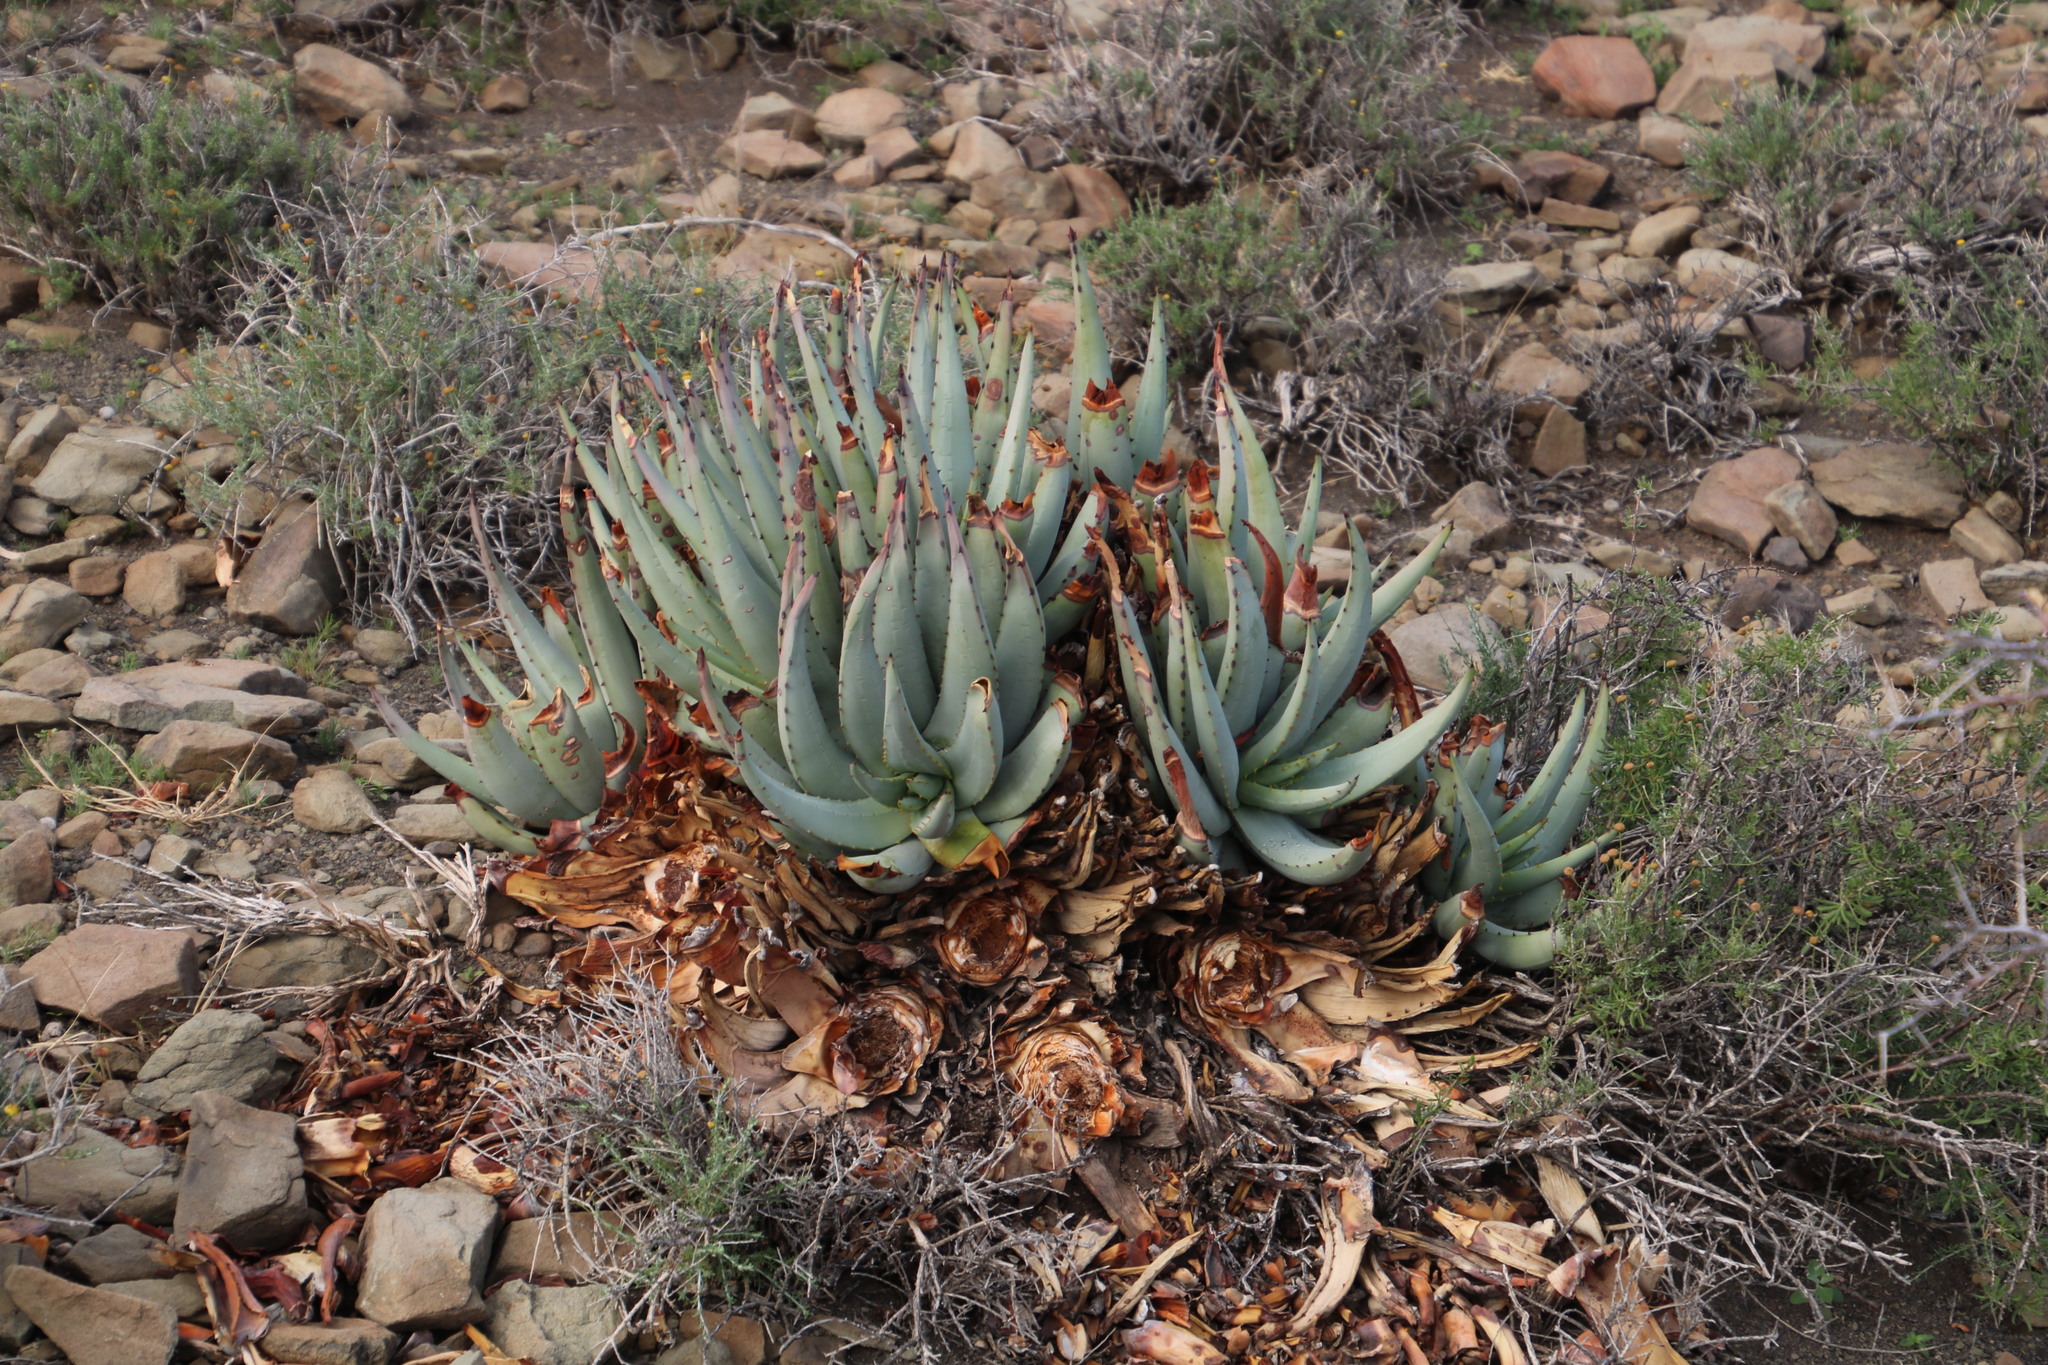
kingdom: Plantae
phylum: Tracheophyta
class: Liliopsida
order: Asparagales
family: Asphodelaceae
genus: Aloe
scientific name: Aloe claviflora
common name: Cannon aloe
